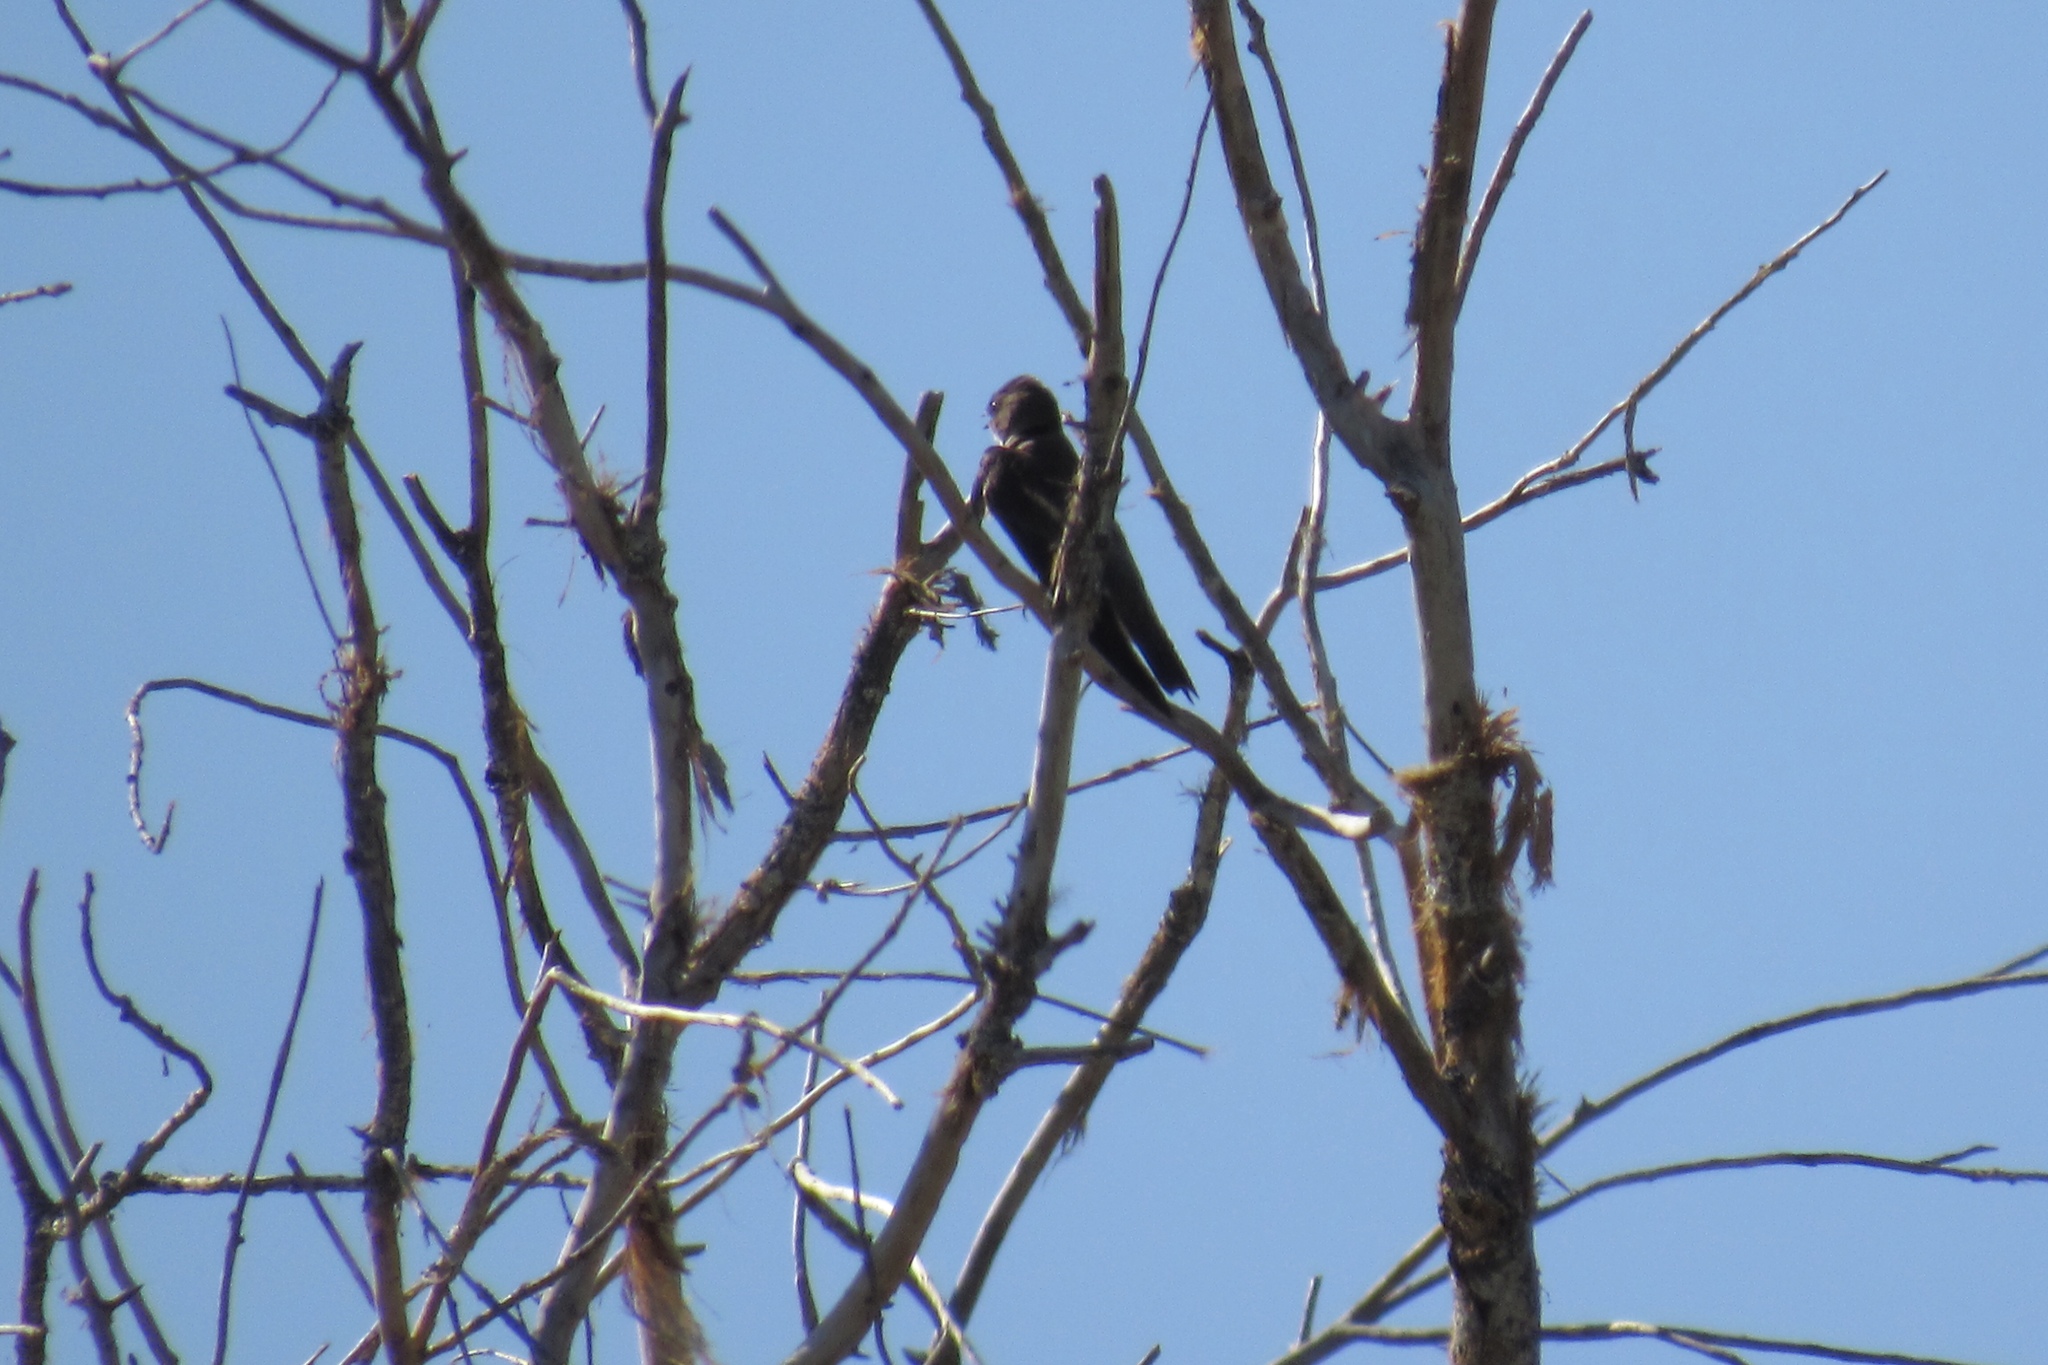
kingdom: Animalia
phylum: Chordata
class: Aves
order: Piciformes
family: Picidae
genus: Dryobates
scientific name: Dryobates scalaris
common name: Ladder-backed woodpecker
